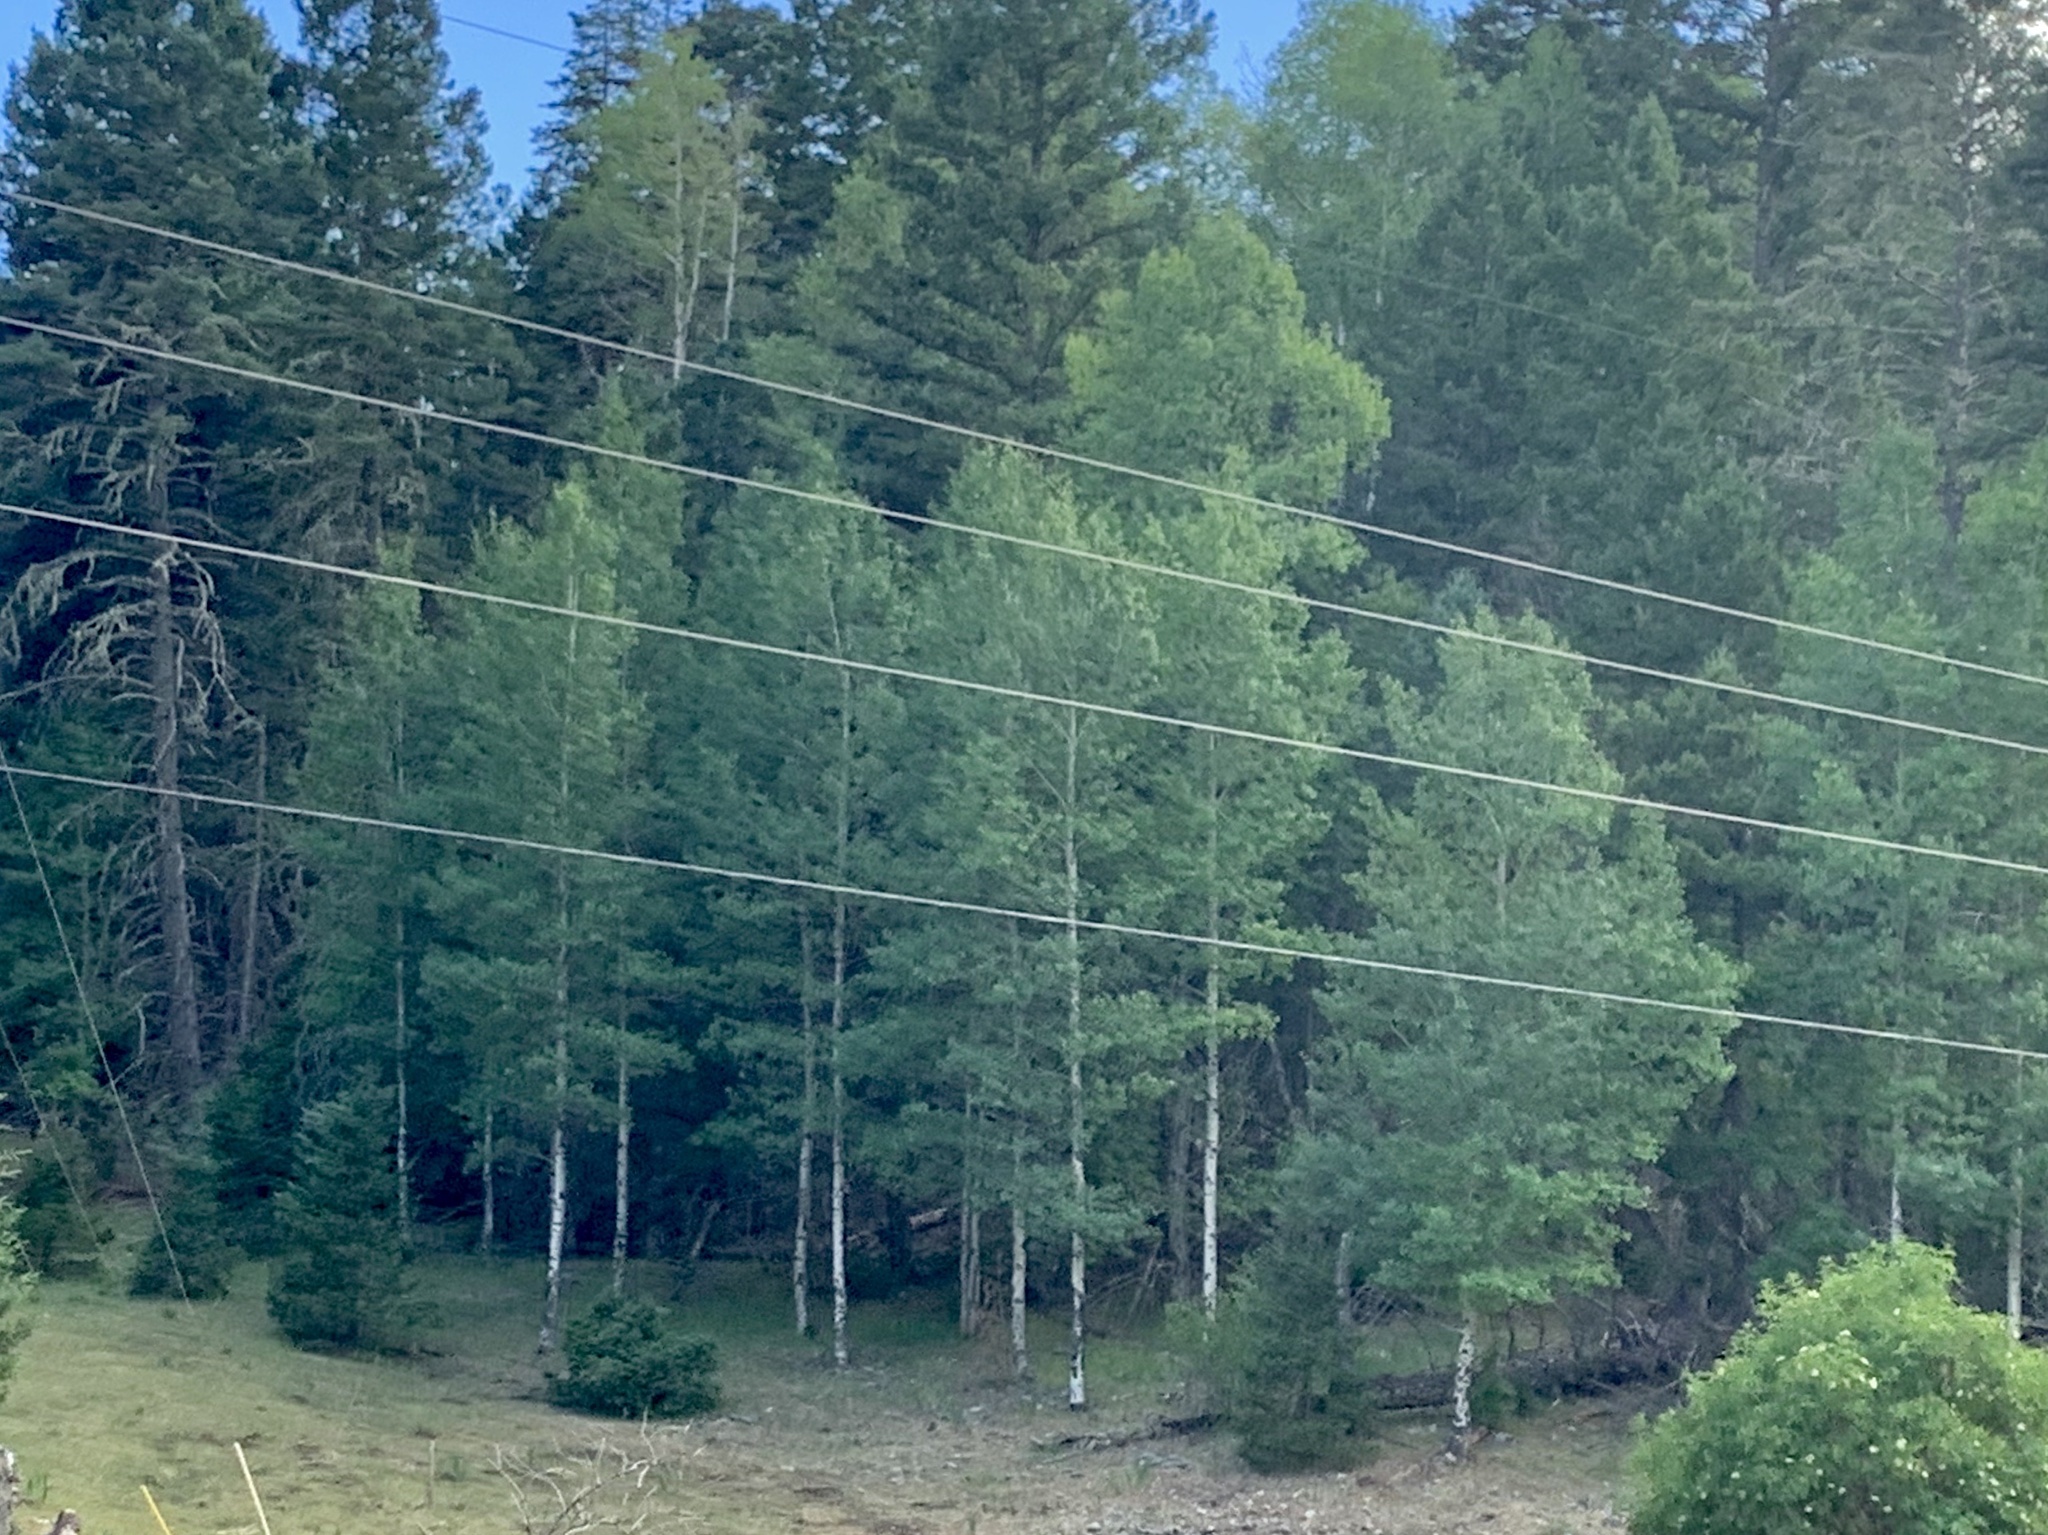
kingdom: Plantae
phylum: Tracheophyta
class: Magnoliopsida
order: Malpighiales
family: Salicaceae
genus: Populus
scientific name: Populus tremuloides
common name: Quaking aspen
